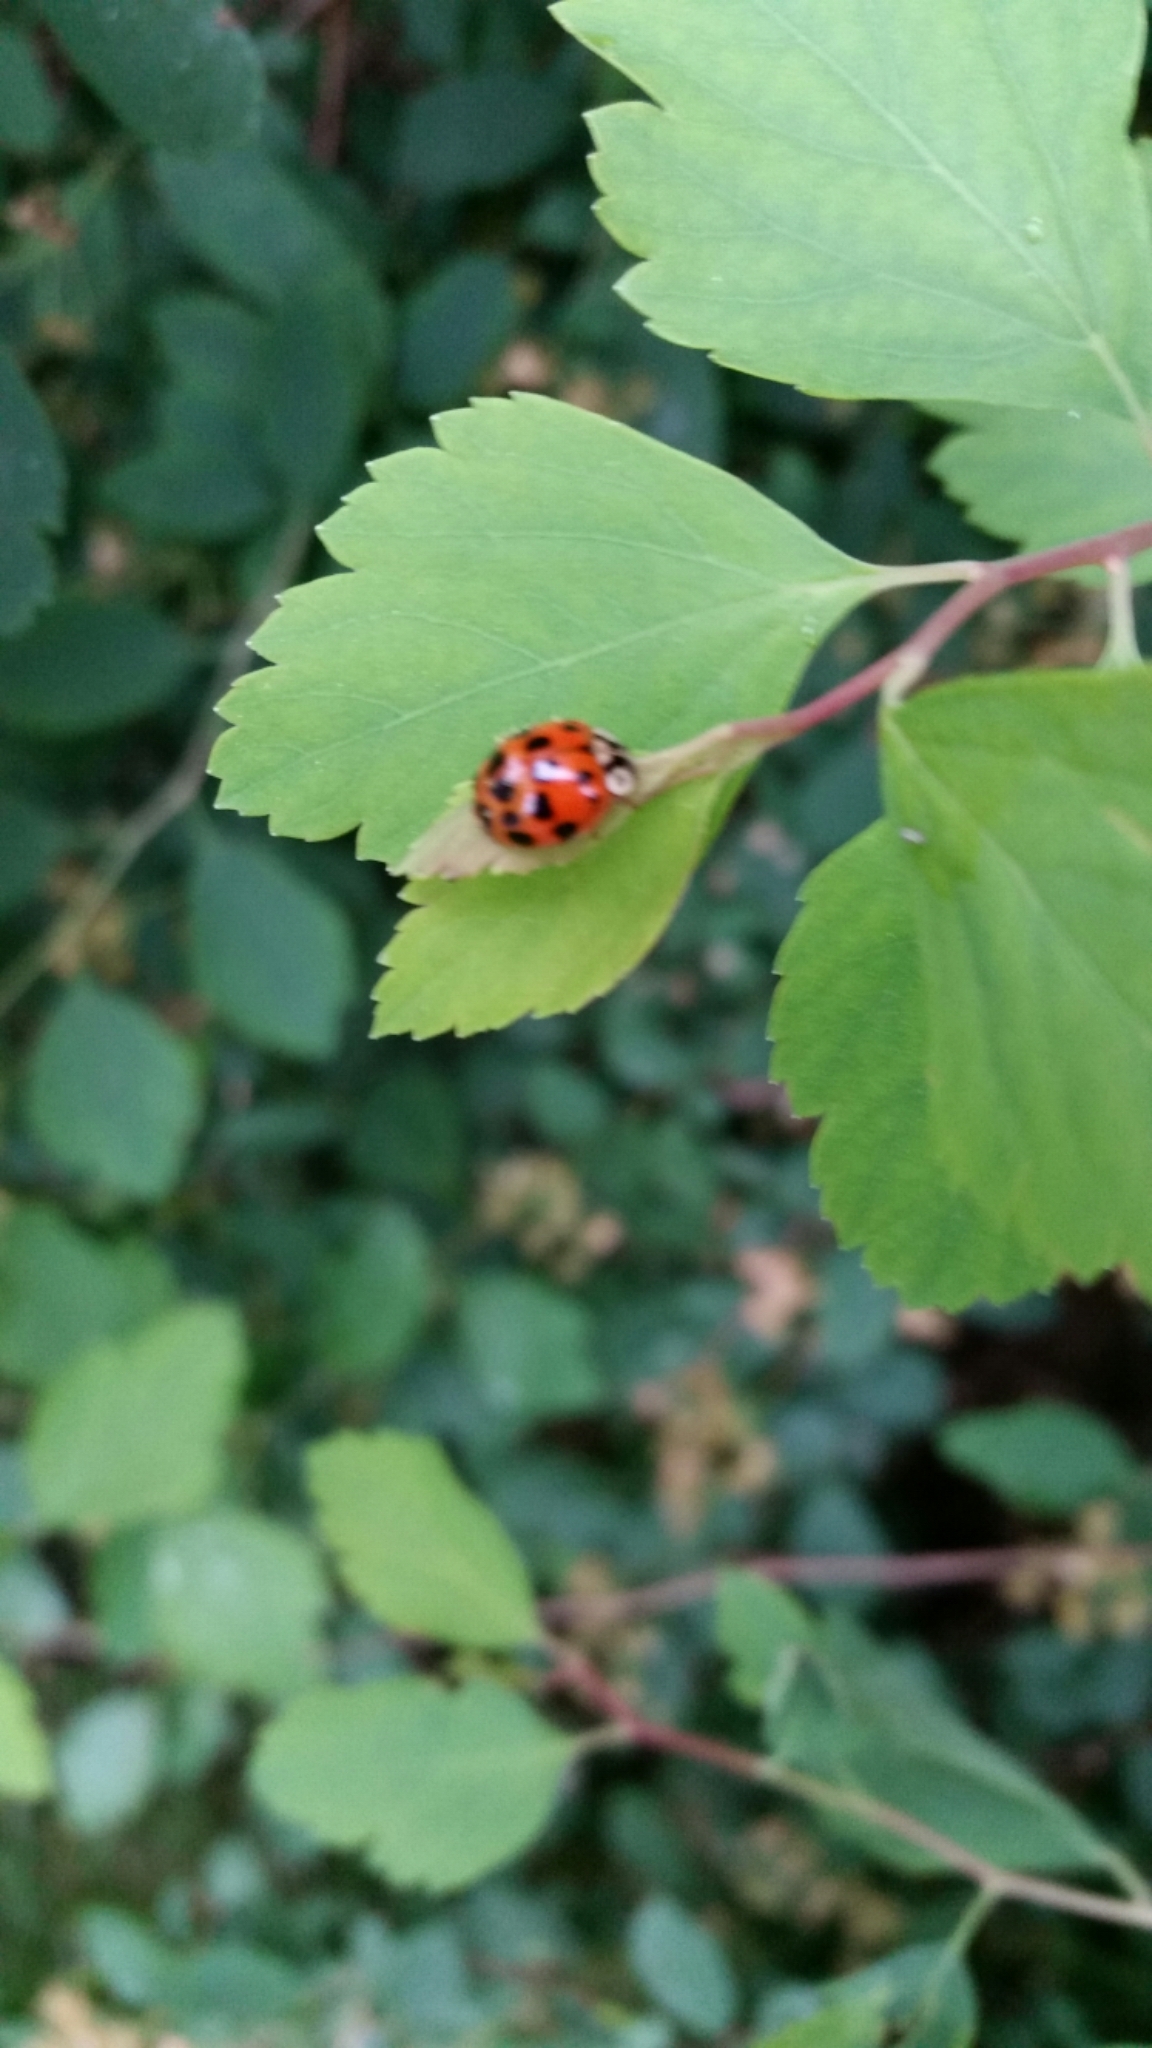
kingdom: Animalia
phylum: Arthropoda
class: Insecta
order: Coleoptera
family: Coccinellidae
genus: Harmonia
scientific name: Harmonia axyridis
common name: Harlequin ladybird
